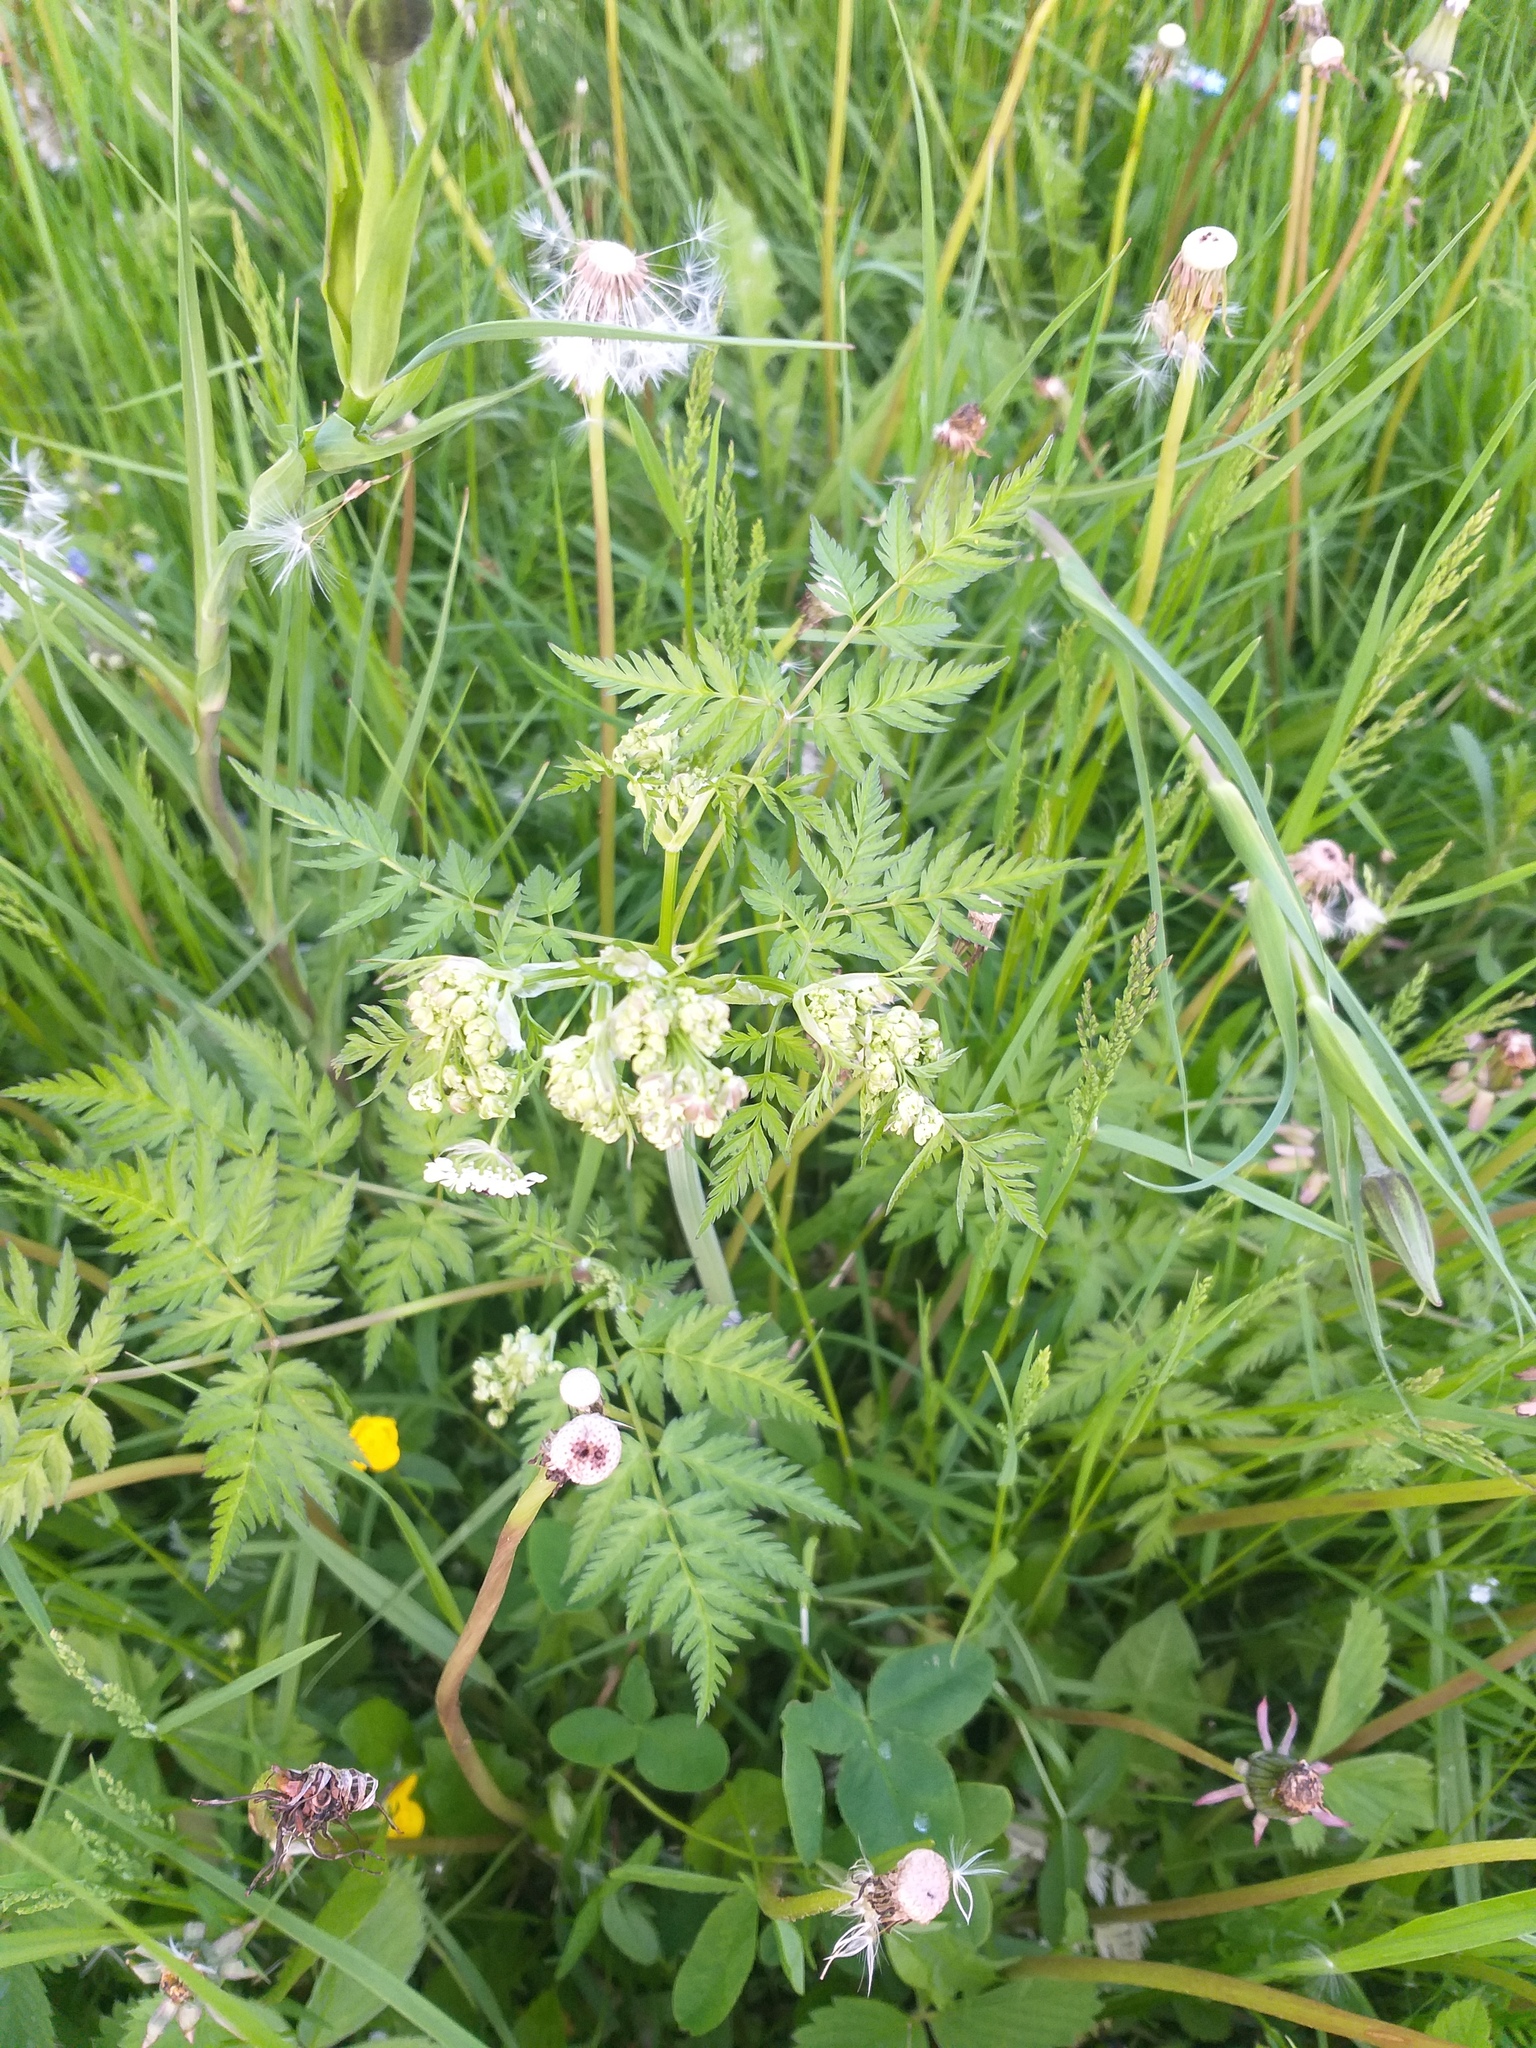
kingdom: Plantae
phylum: Tracheophyta
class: Magnoliopsida
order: Apiales
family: Apiaceae
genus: Anthriscus
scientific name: Anthriscus sylvestris
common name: Cow parsley
